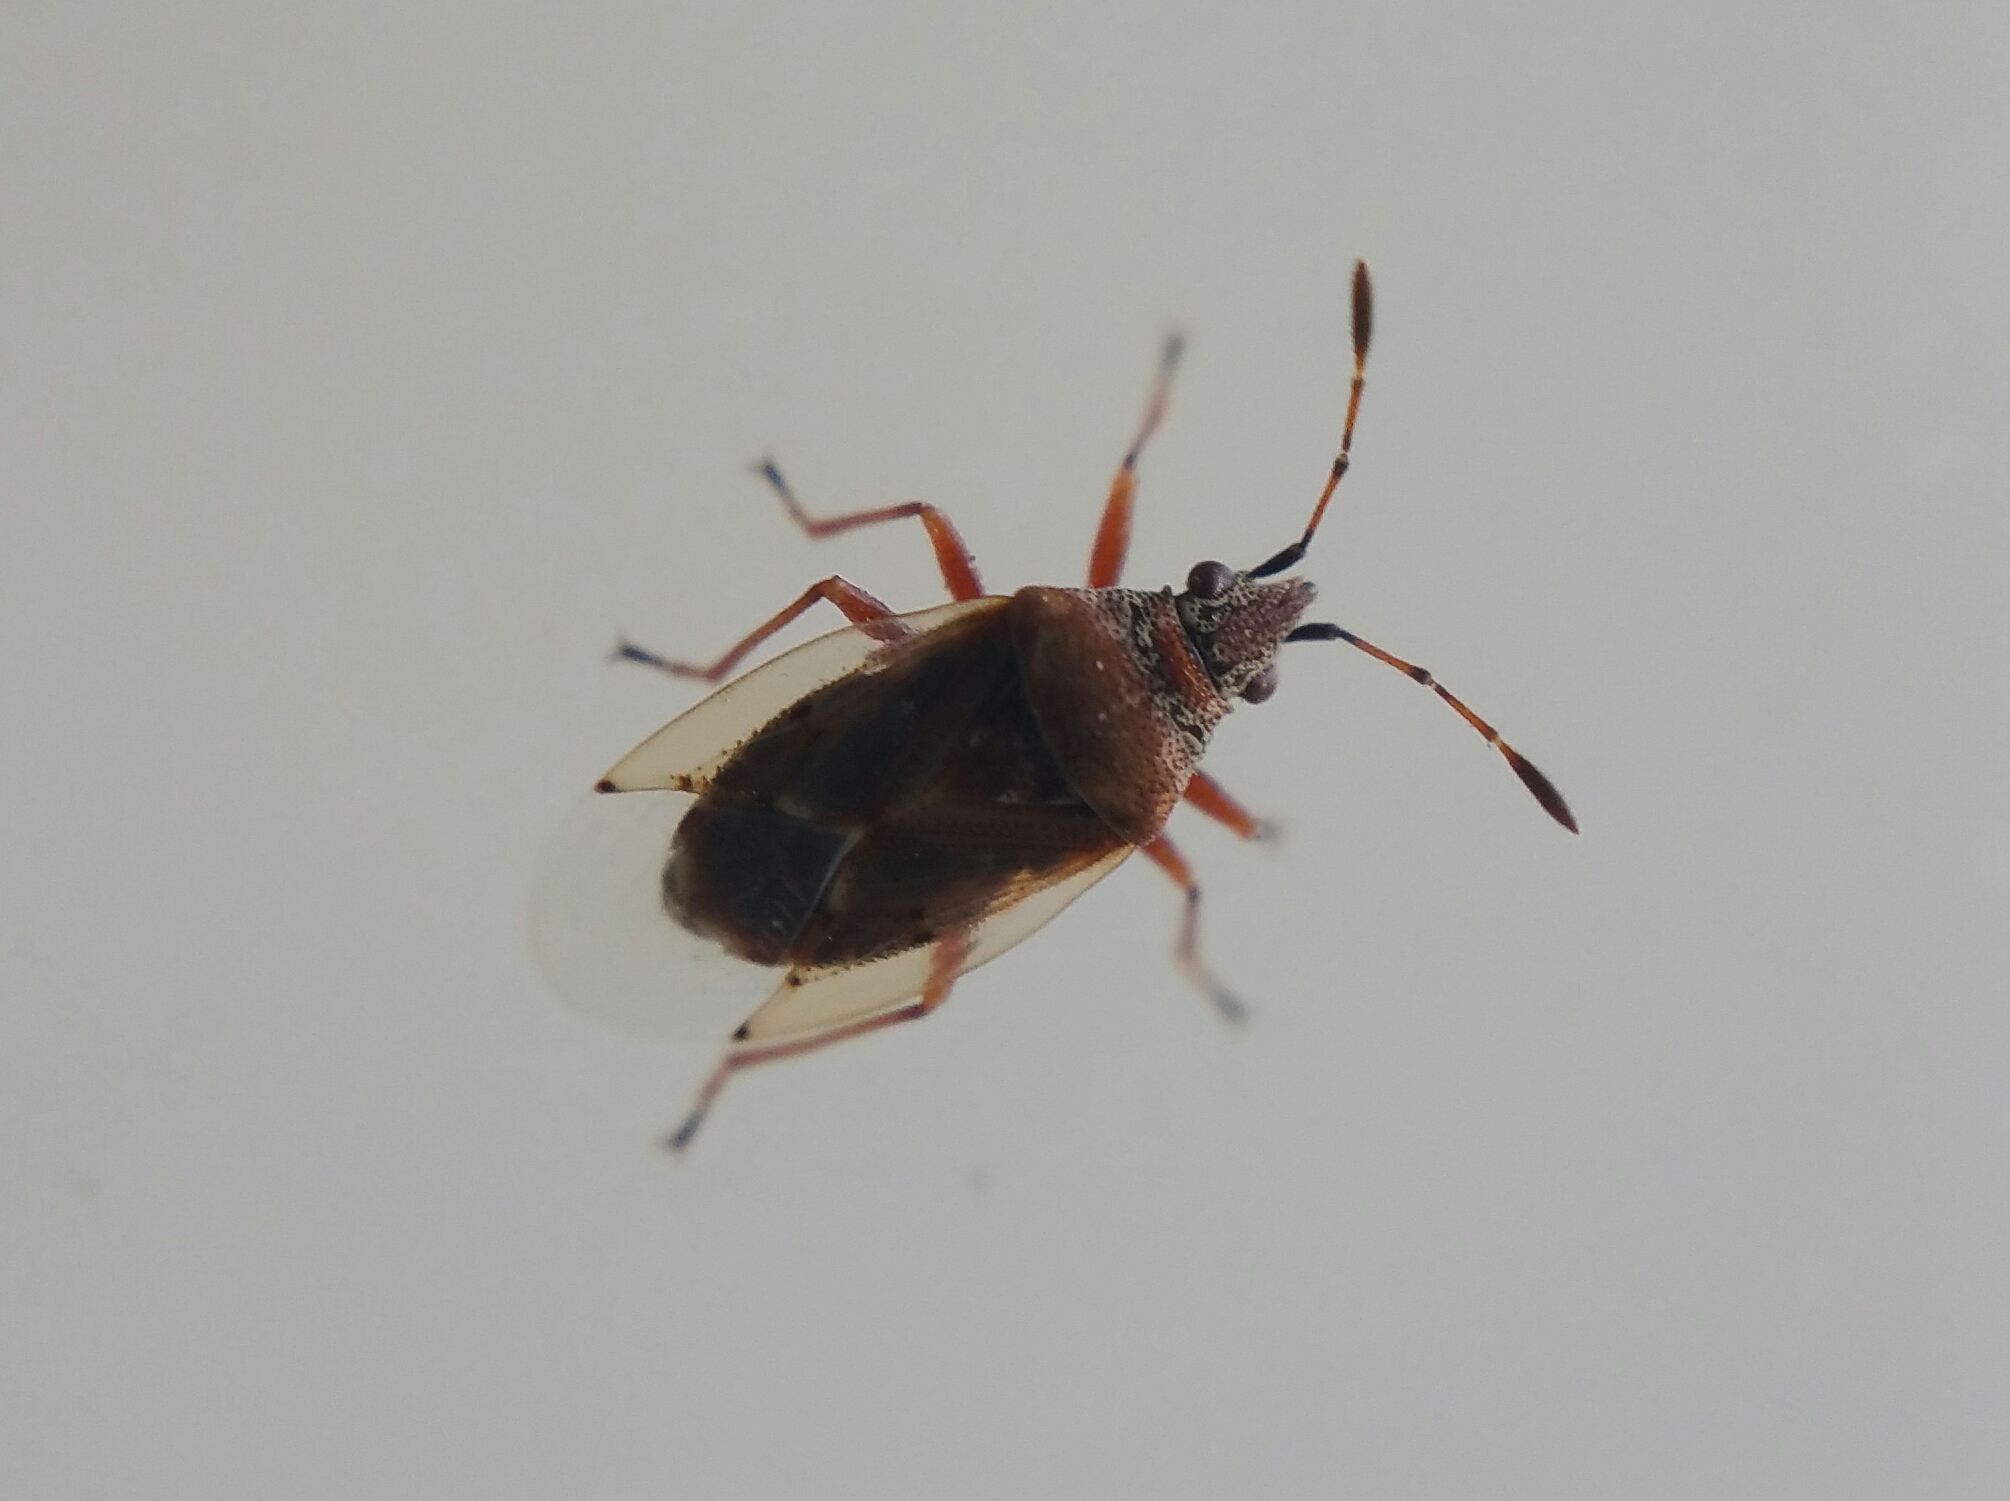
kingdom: Animalia
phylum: Arthropoda
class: Insecta
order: Hemiptera
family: Lygaeidae
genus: Kleidocerys
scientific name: Kleidocerys resedae
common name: Birch catkin bug
